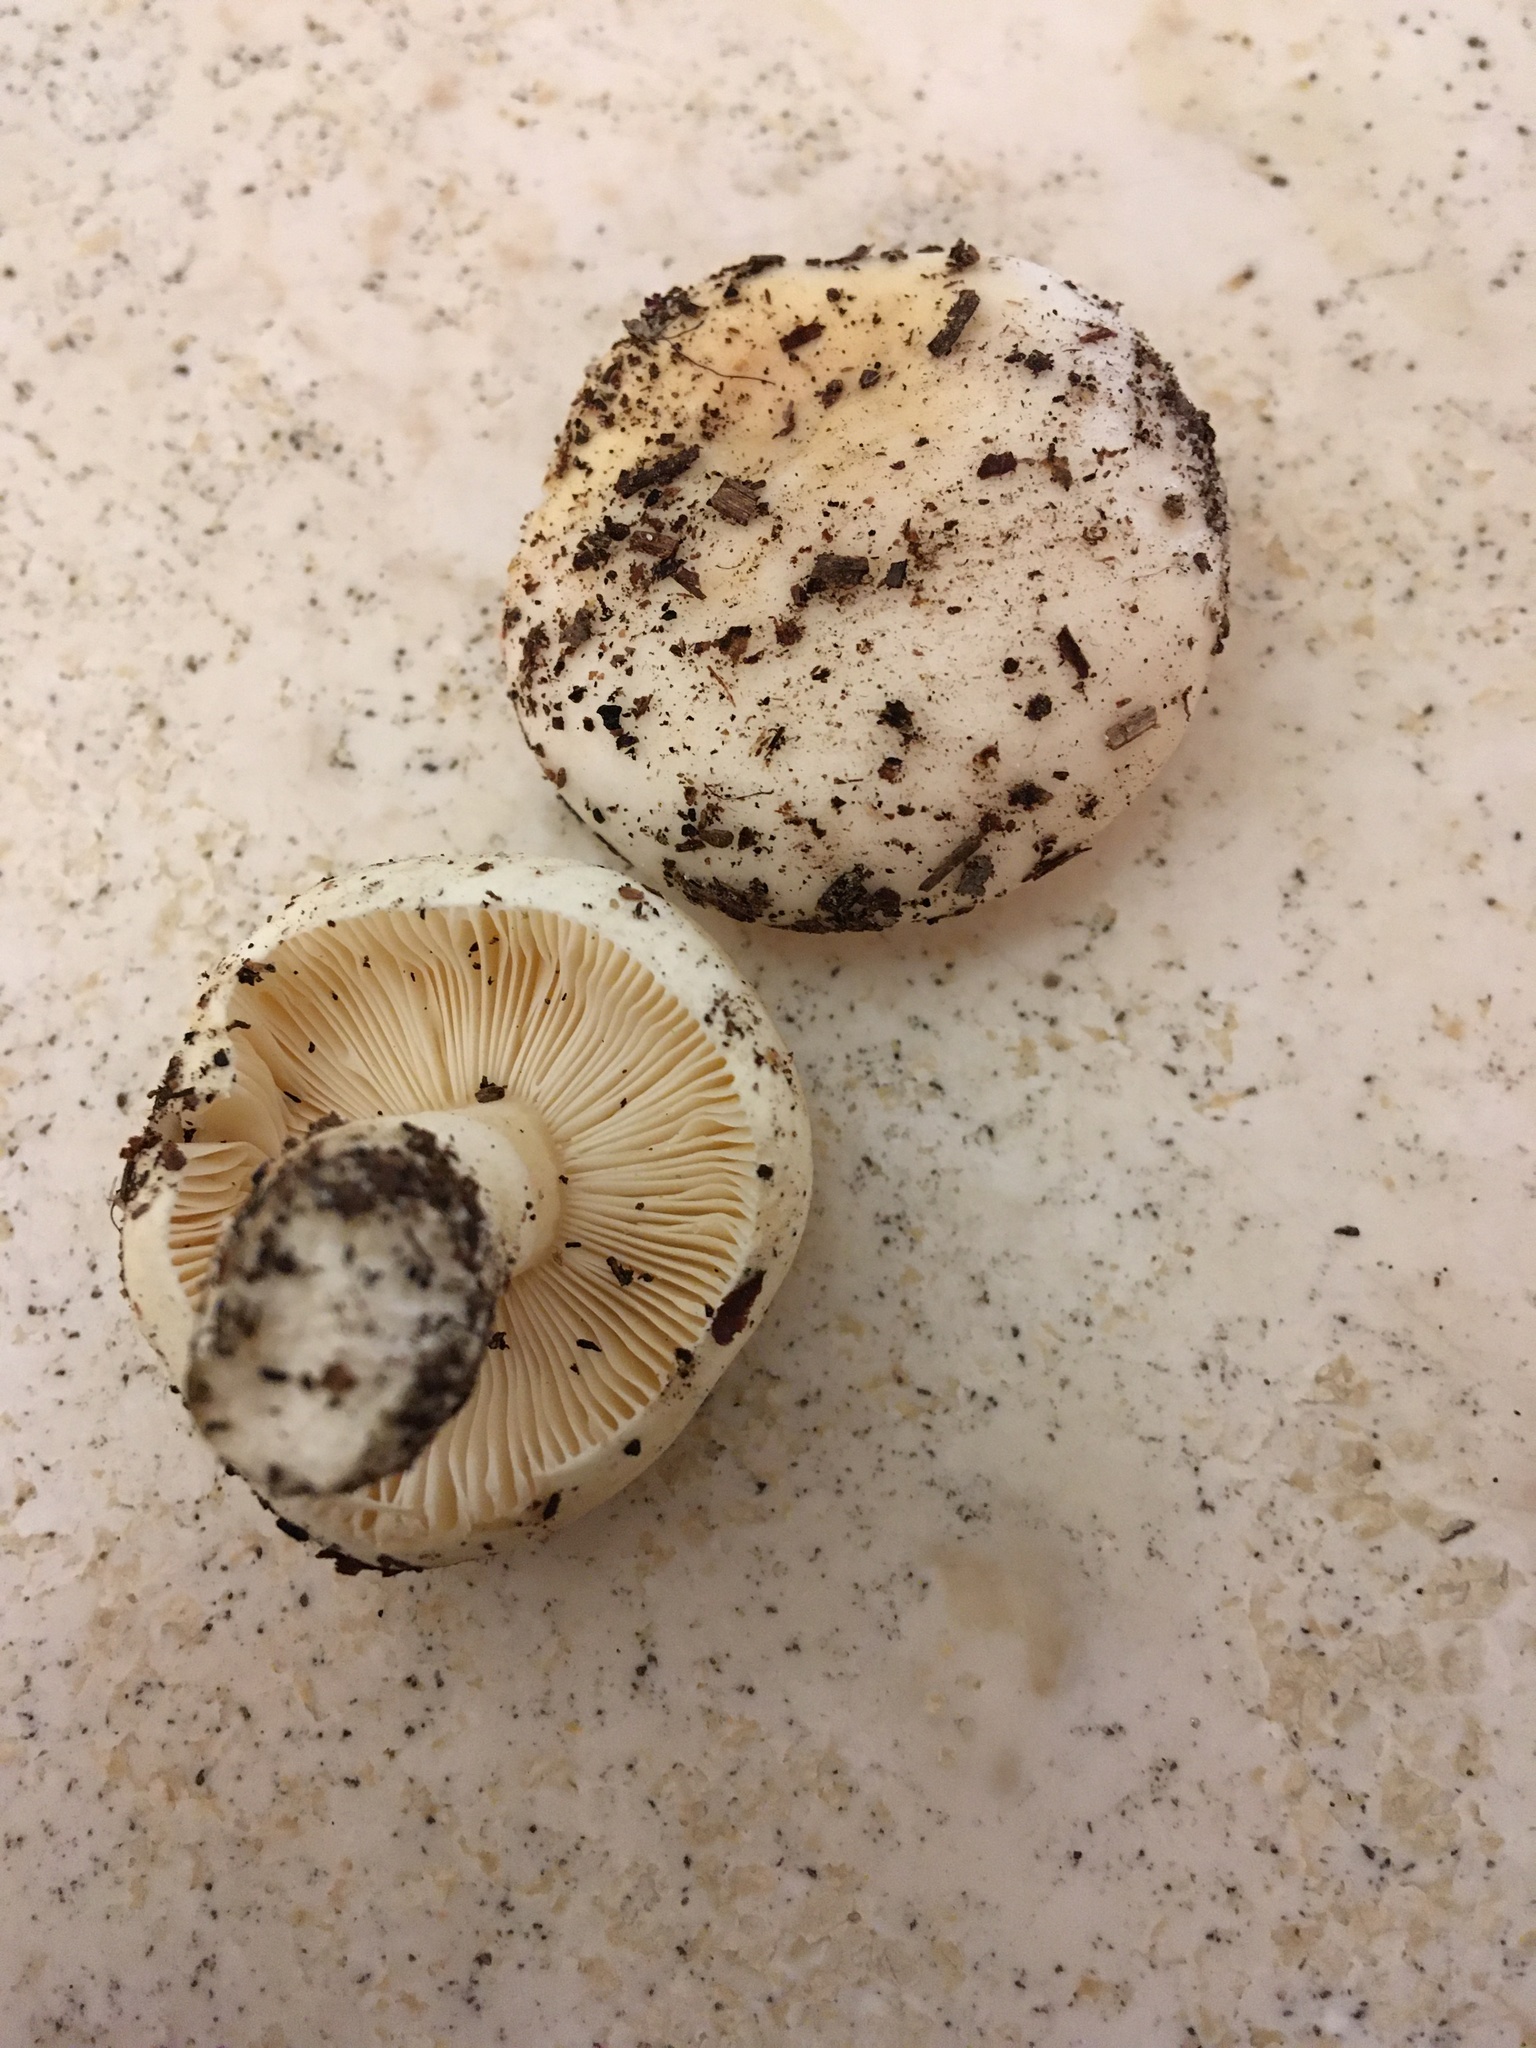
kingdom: Fungi
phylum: Basidiomycota
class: Agaricomycetes
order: Russulales
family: Russulaceae
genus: Russula
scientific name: Russula perlactea
